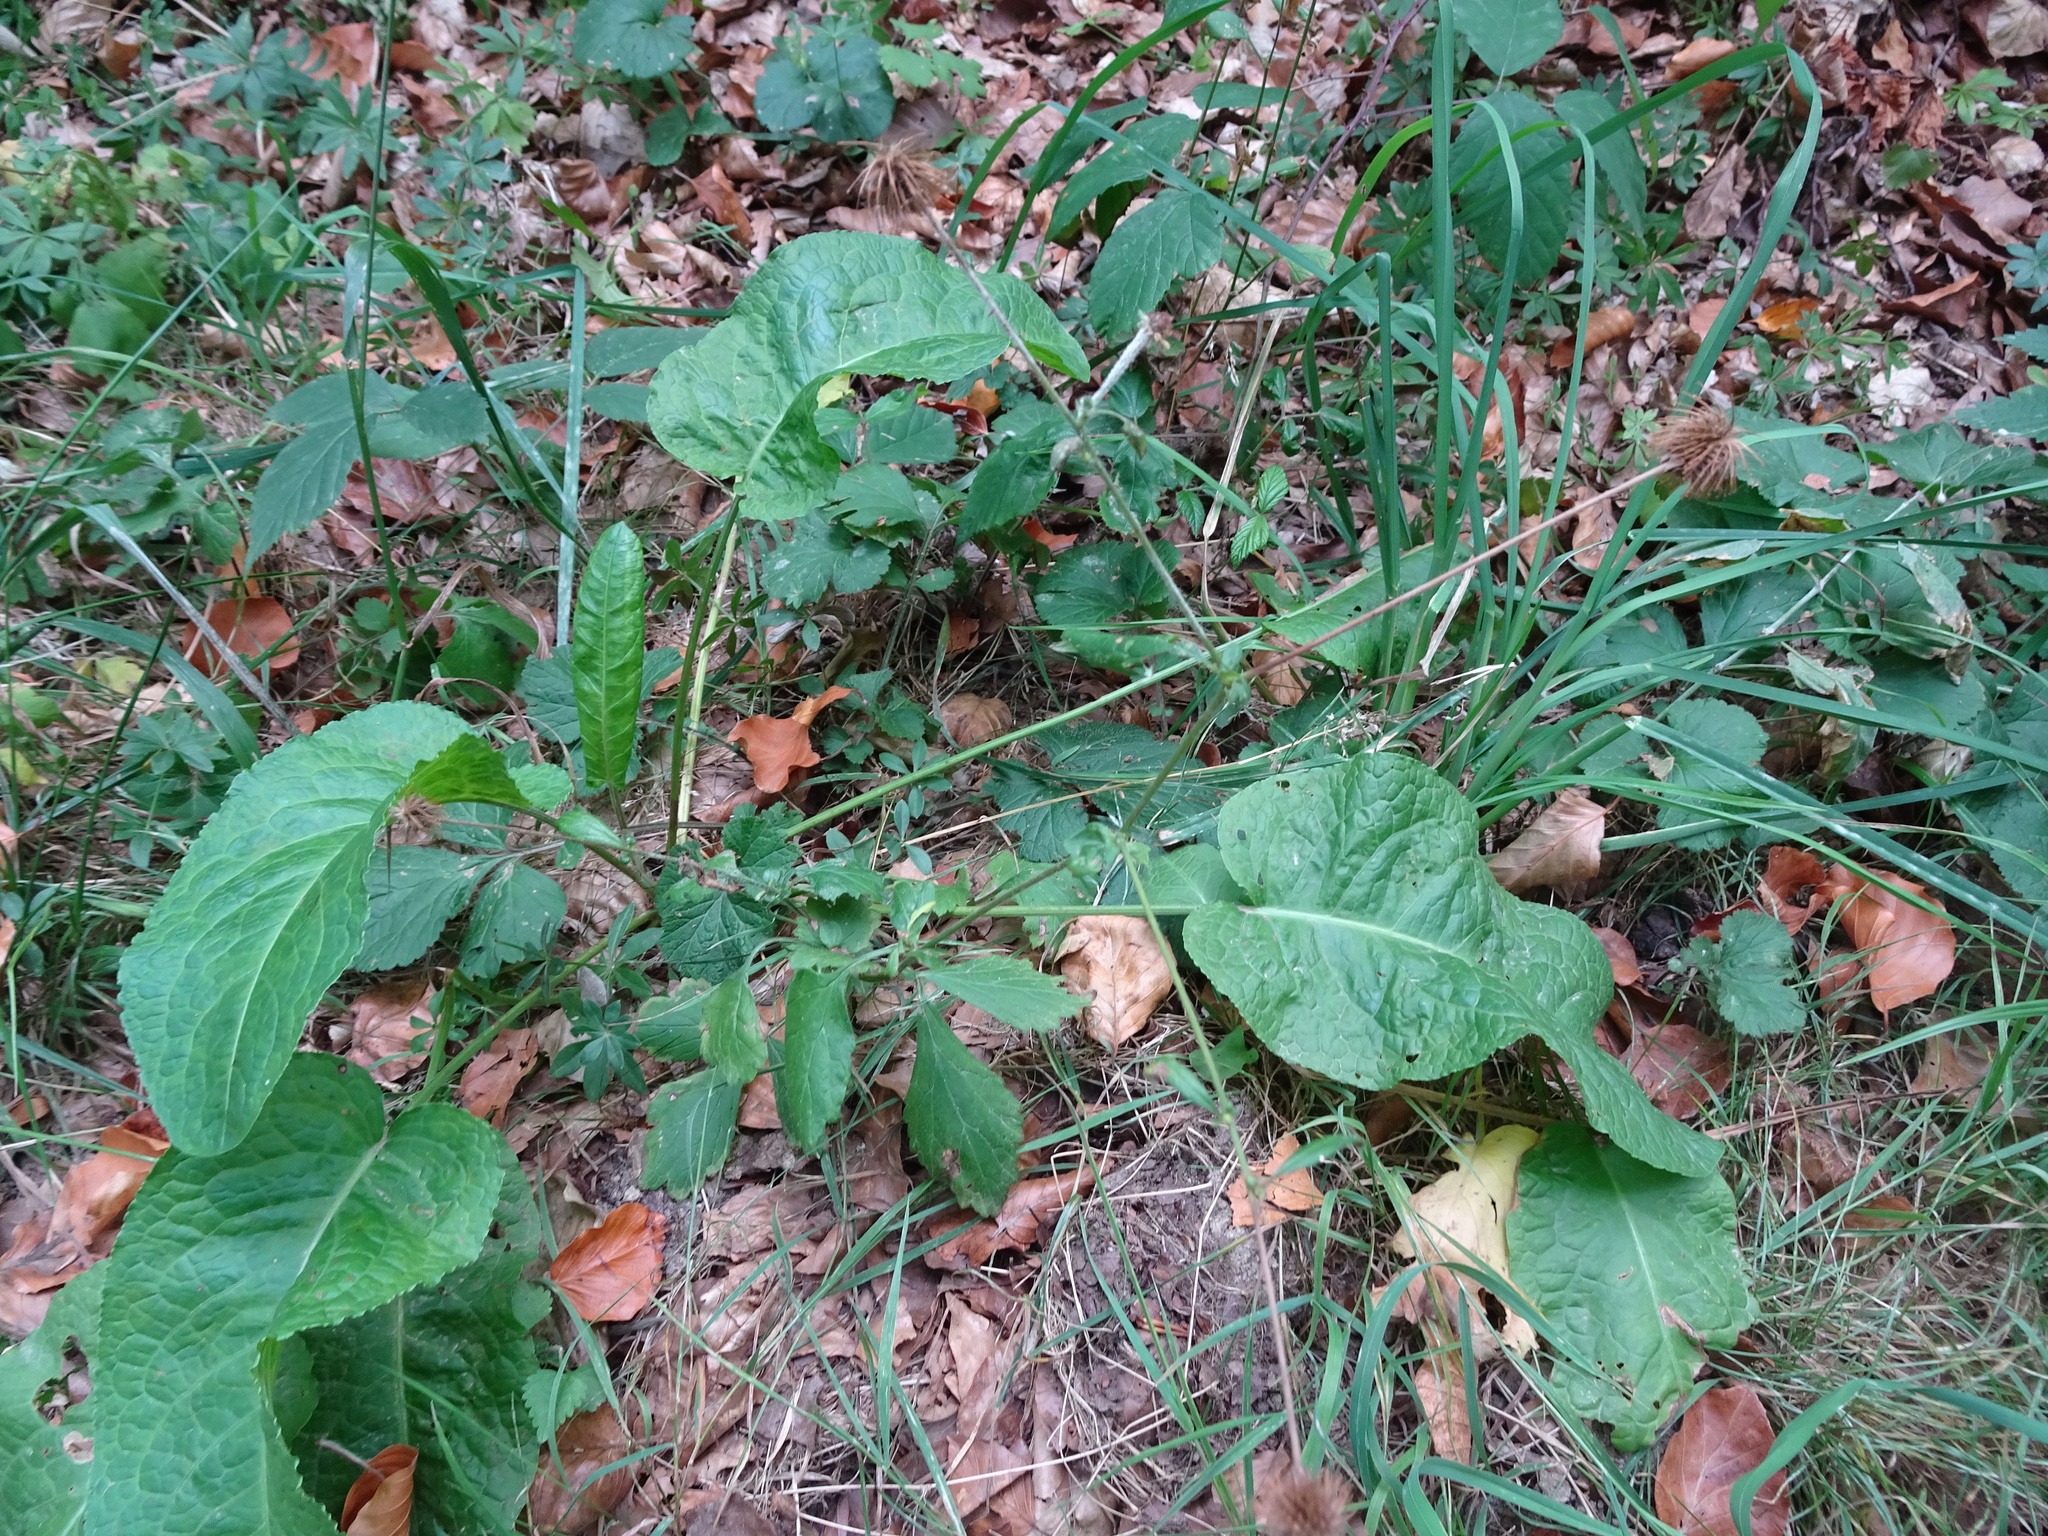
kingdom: Plantae
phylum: Tracheophyta
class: Magnoliopsida
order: Rosales
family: Rosaceae
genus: Geum
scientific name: Geum urbanum
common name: Wood avens
